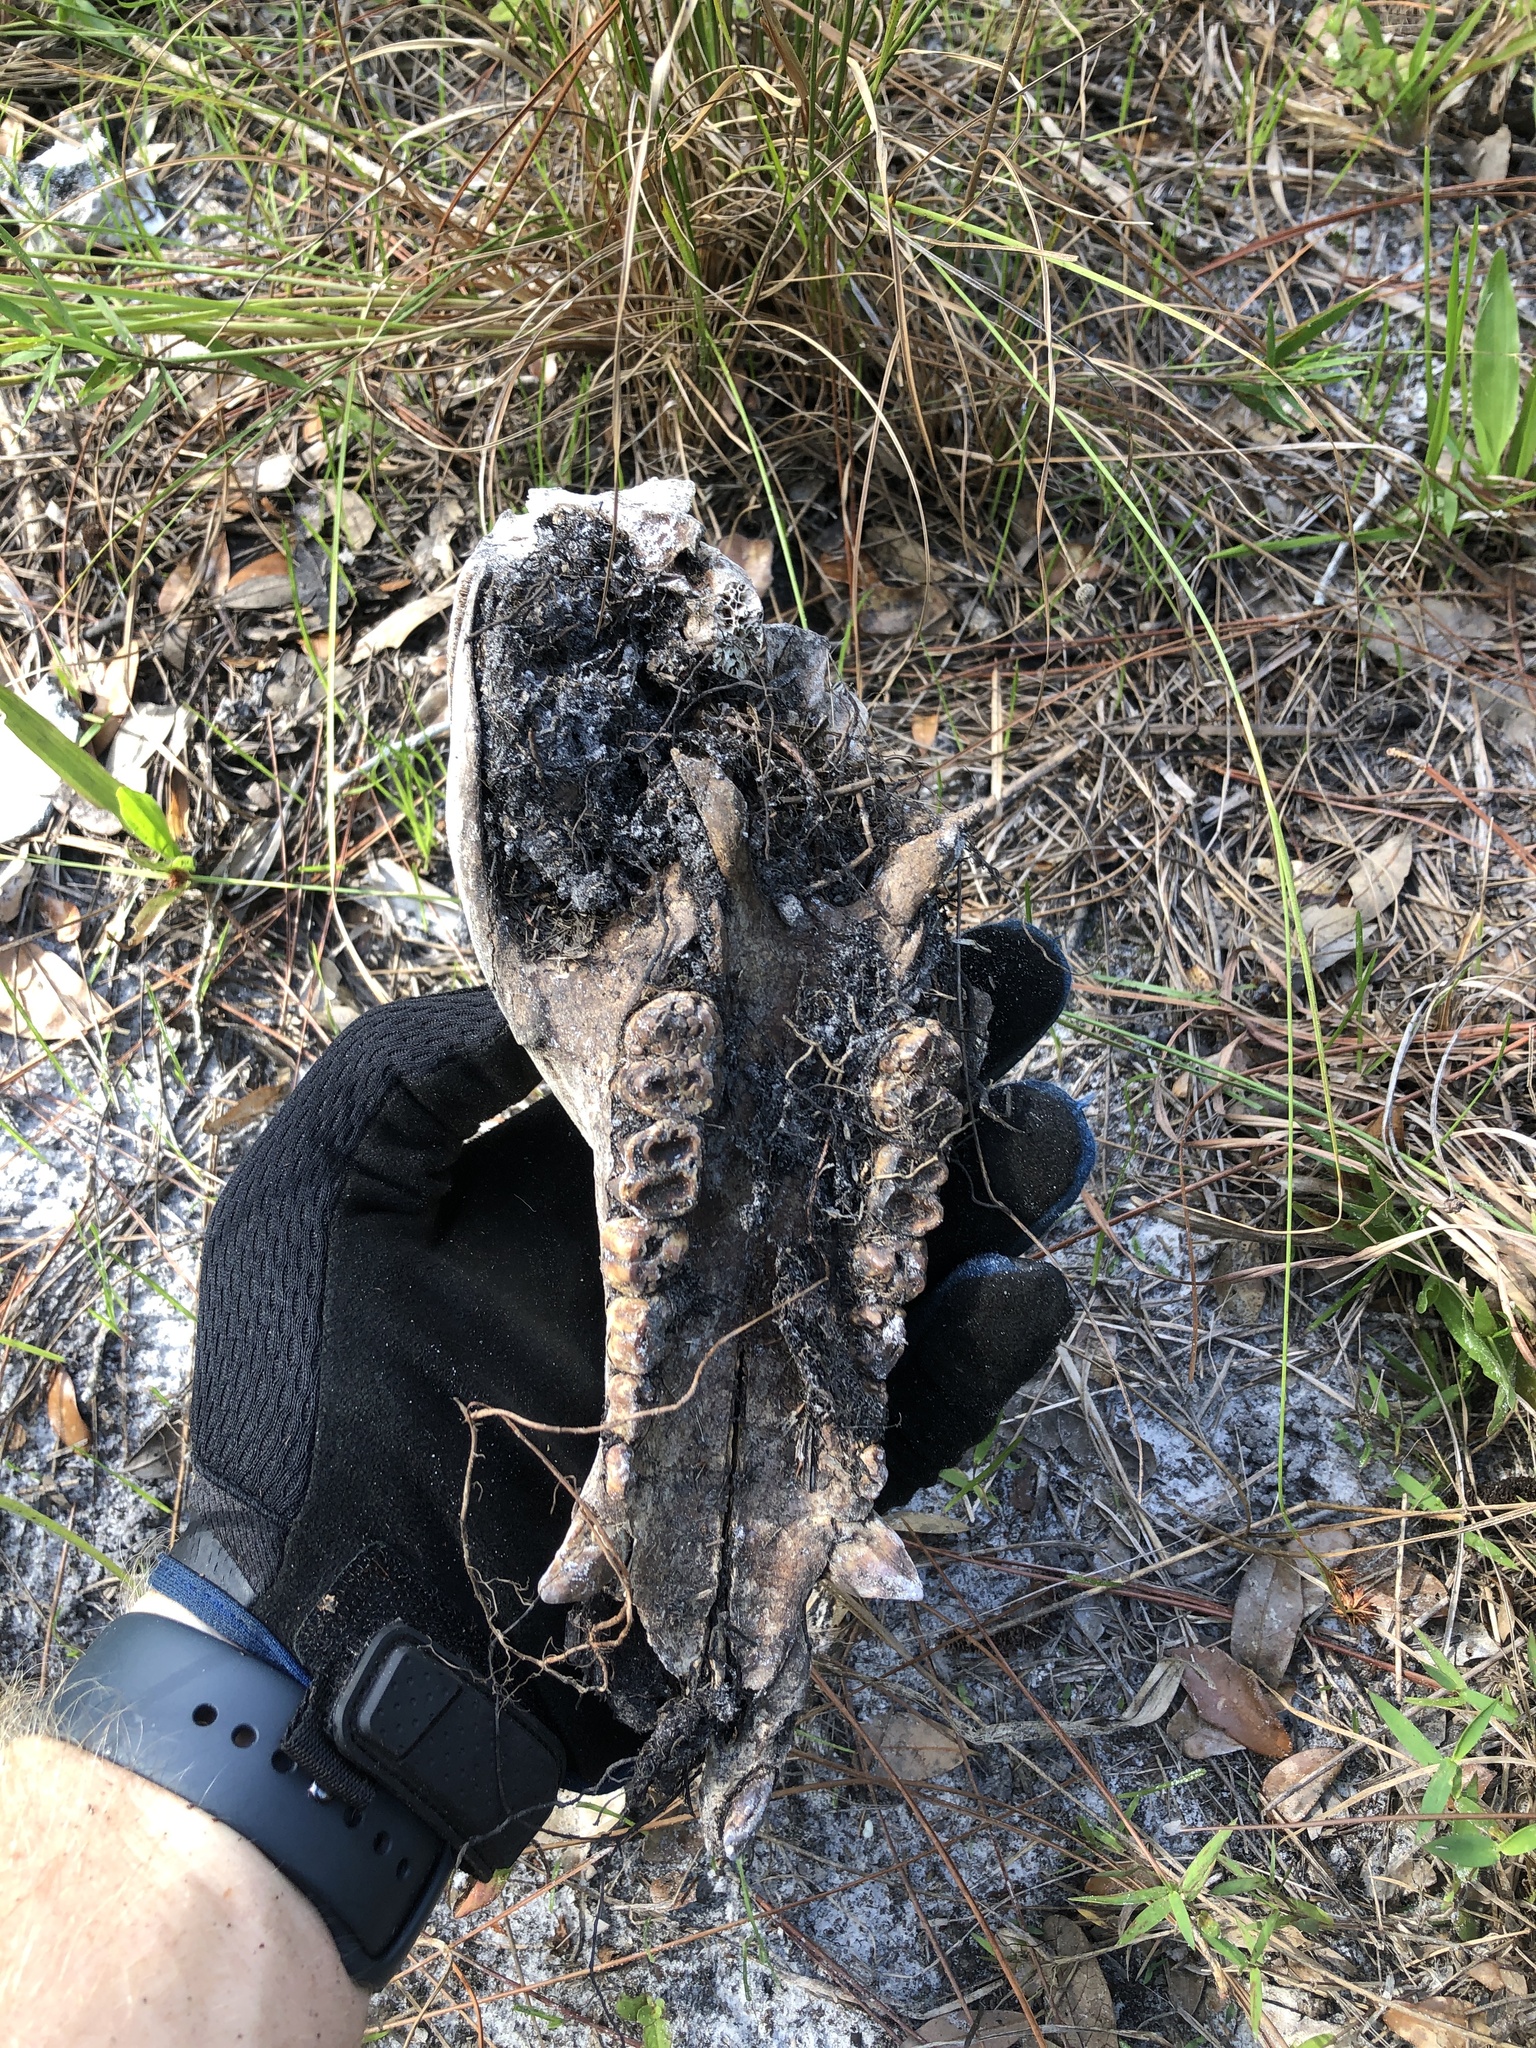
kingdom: Animalia
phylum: Chordata
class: Mammalia
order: Artiodactyla
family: Suidae
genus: Sus
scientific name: Sus scrofa
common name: Wild boar
